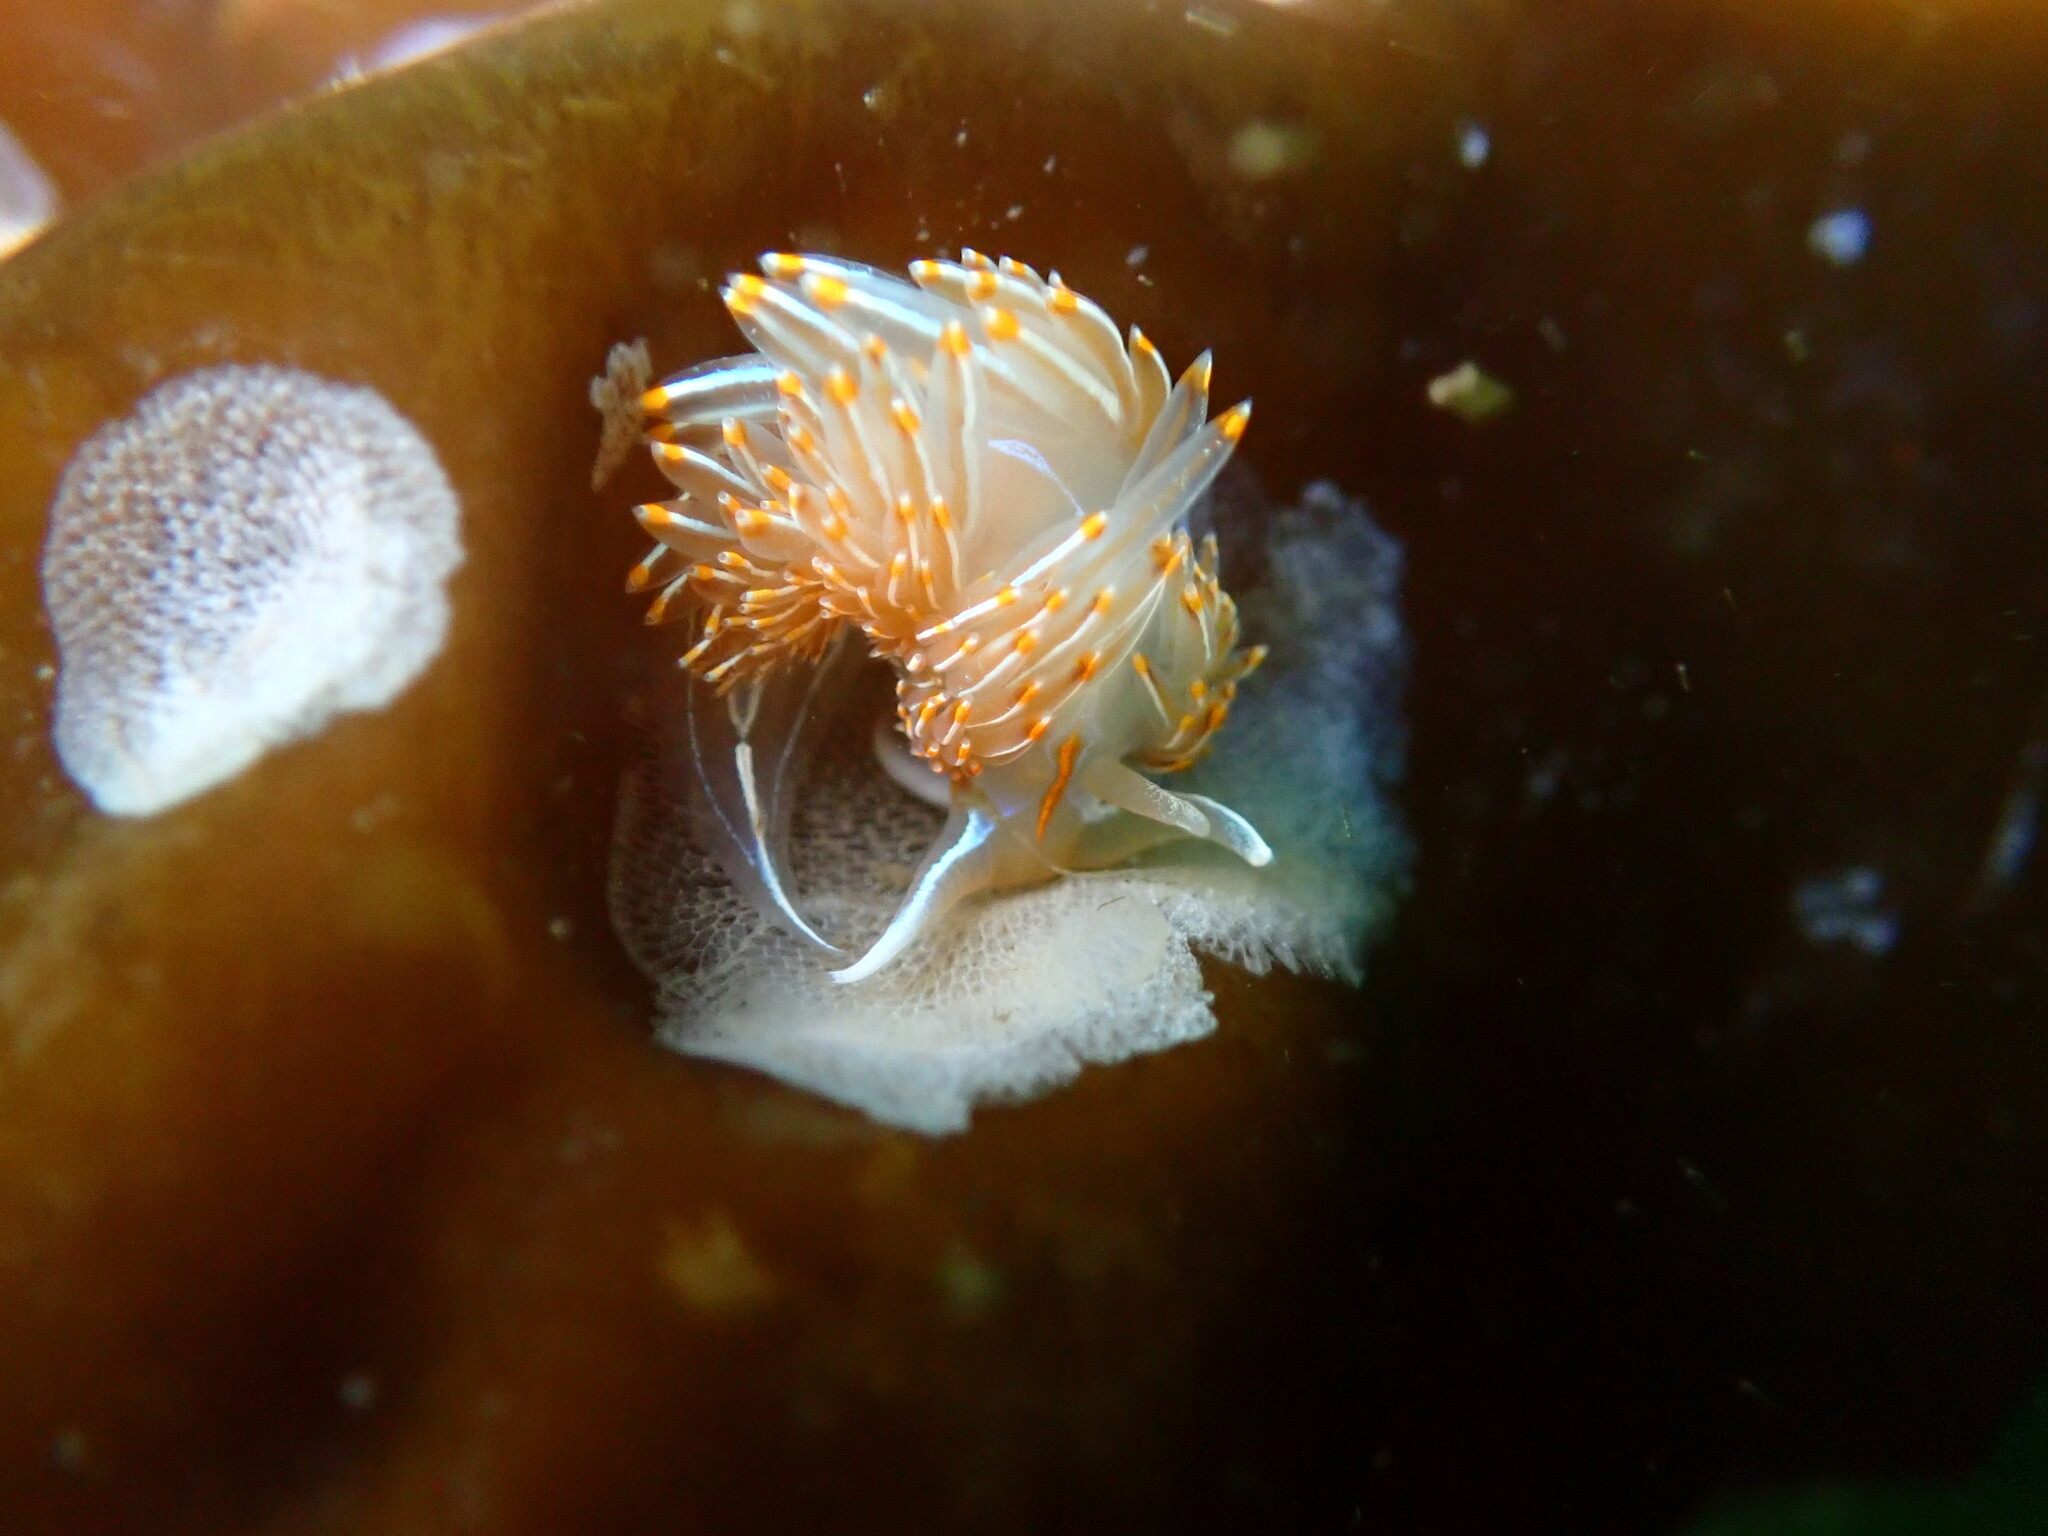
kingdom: Animalia
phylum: Mollusca
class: Gastropoda
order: Nudibranchia
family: Myrrhinidae
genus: Hermissenda
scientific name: Hermissenda crassicornis
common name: Hermissenda
